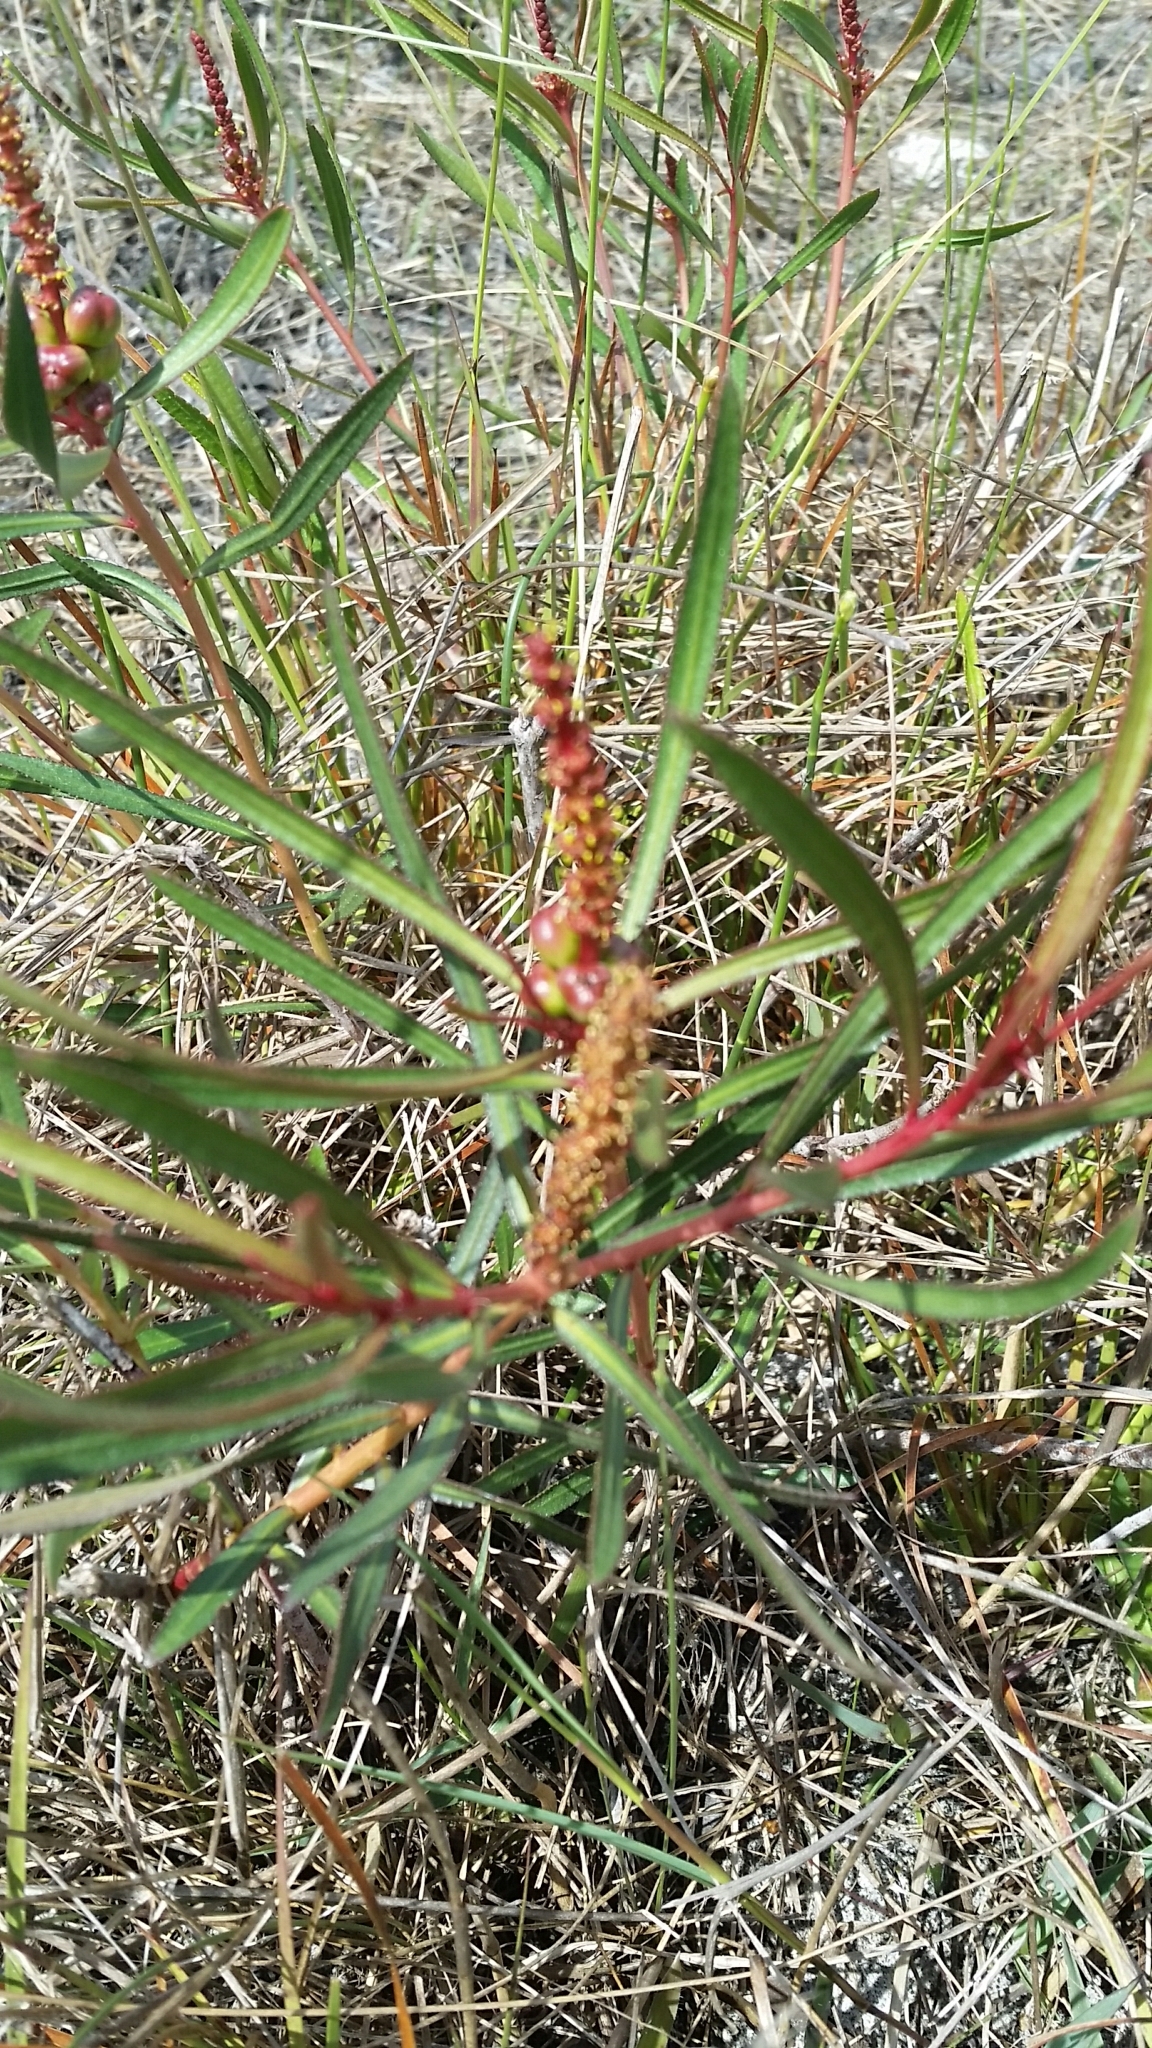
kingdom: Plantae
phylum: Tracheophyta
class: Magnoliopsida
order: Malpighiales
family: Euphorbiaceae
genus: Stillingia
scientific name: Stillingia sylvatica
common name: Queen's-delight
